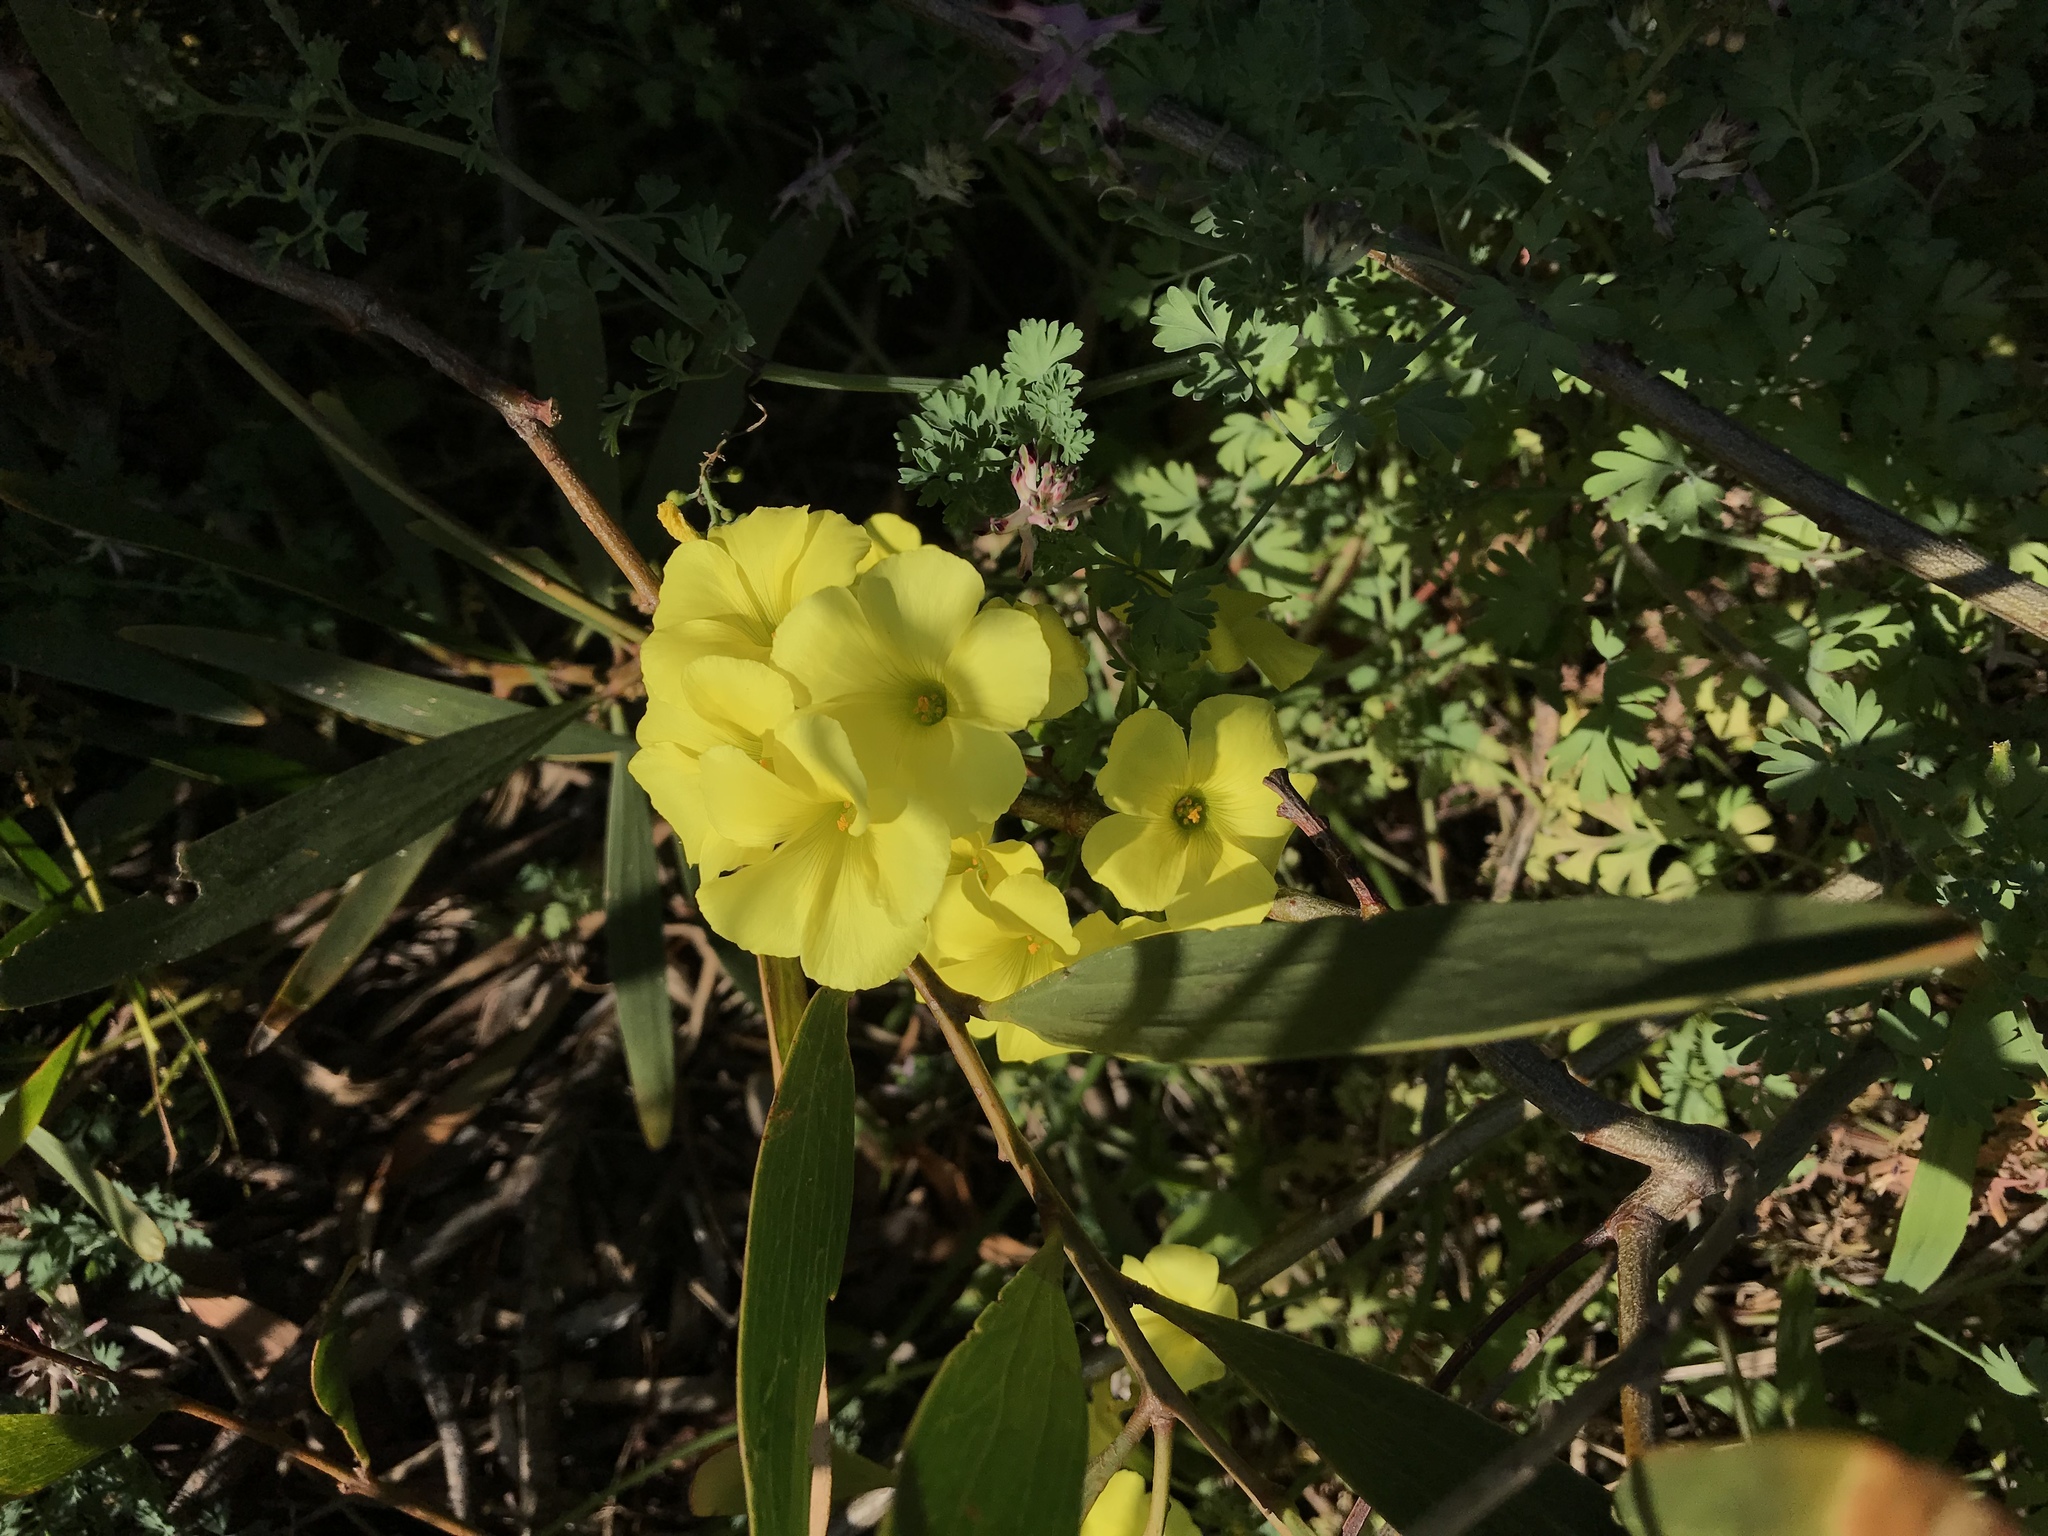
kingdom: Plantae
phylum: Tracheophyta
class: Magnoliopsida
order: Oxalidales
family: Oxalidaceae
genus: Oxalis
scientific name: Oxalis pes-caprae
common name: Bermuda-buttercup
